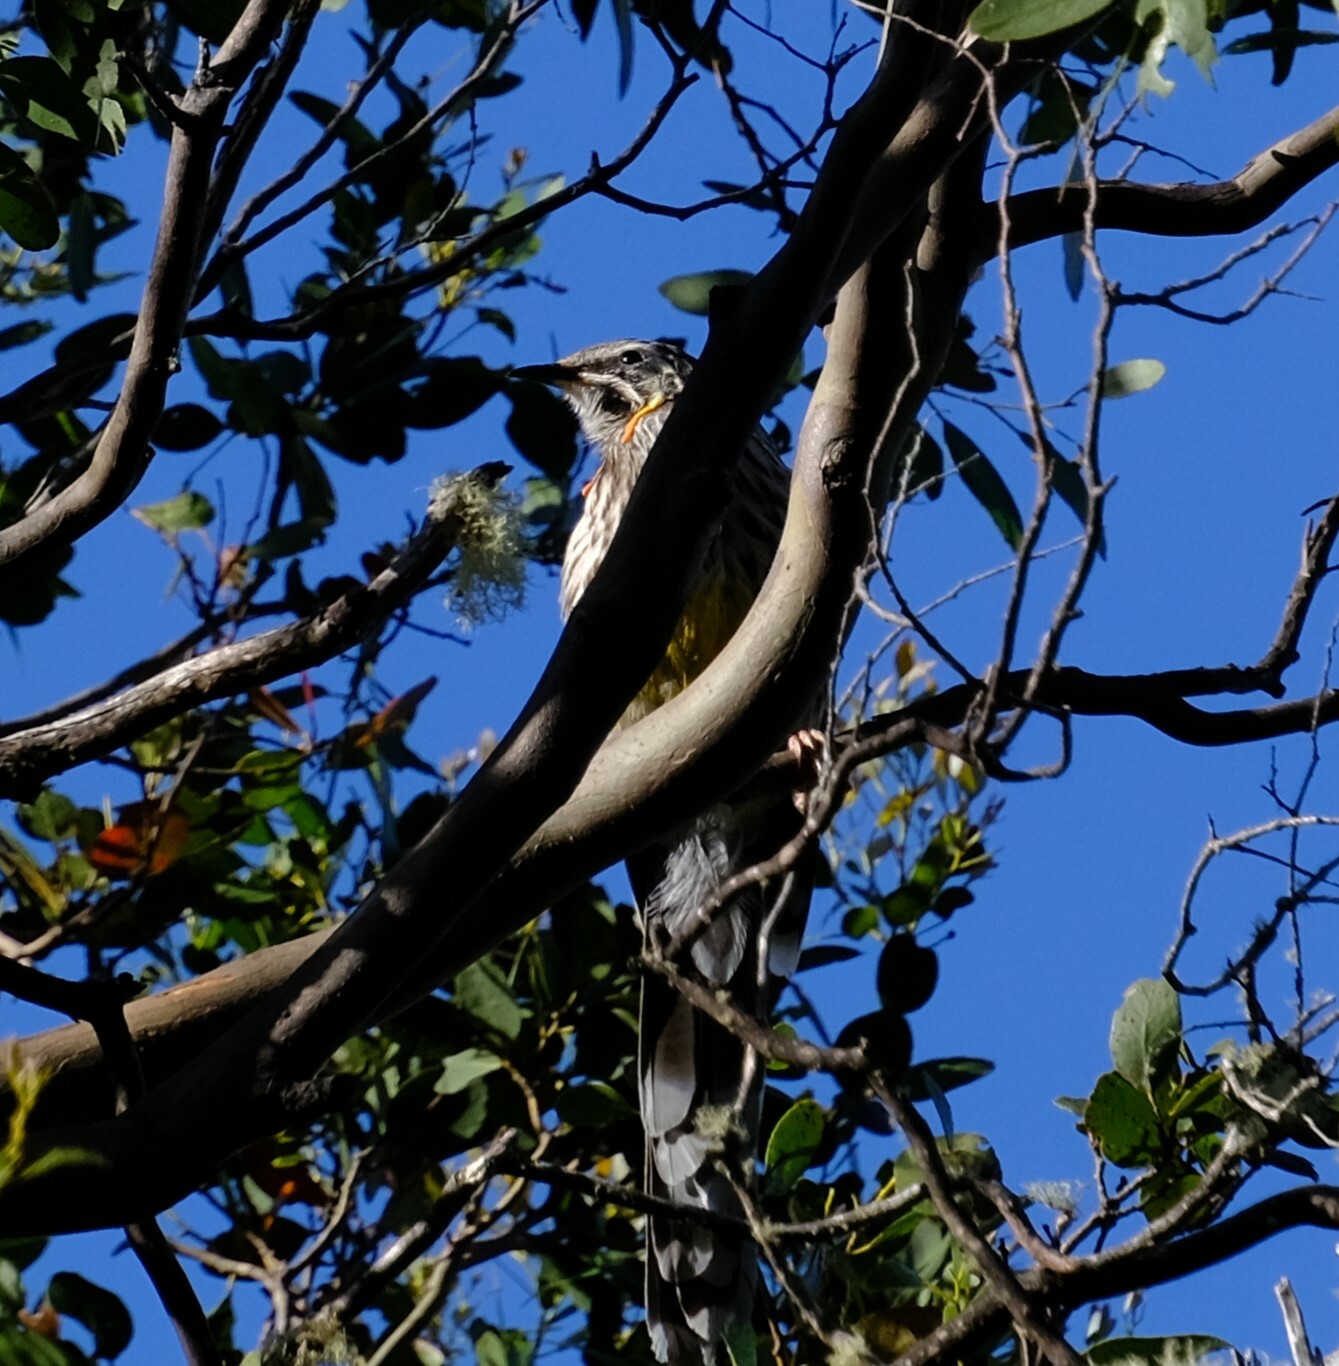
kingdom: Animalia
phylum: Chordata
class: Aves
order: Passeriformes
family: Meliphagidae
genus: Anthochaera
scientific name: Anthochaera paradoxa
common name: Yellow wattlebird
